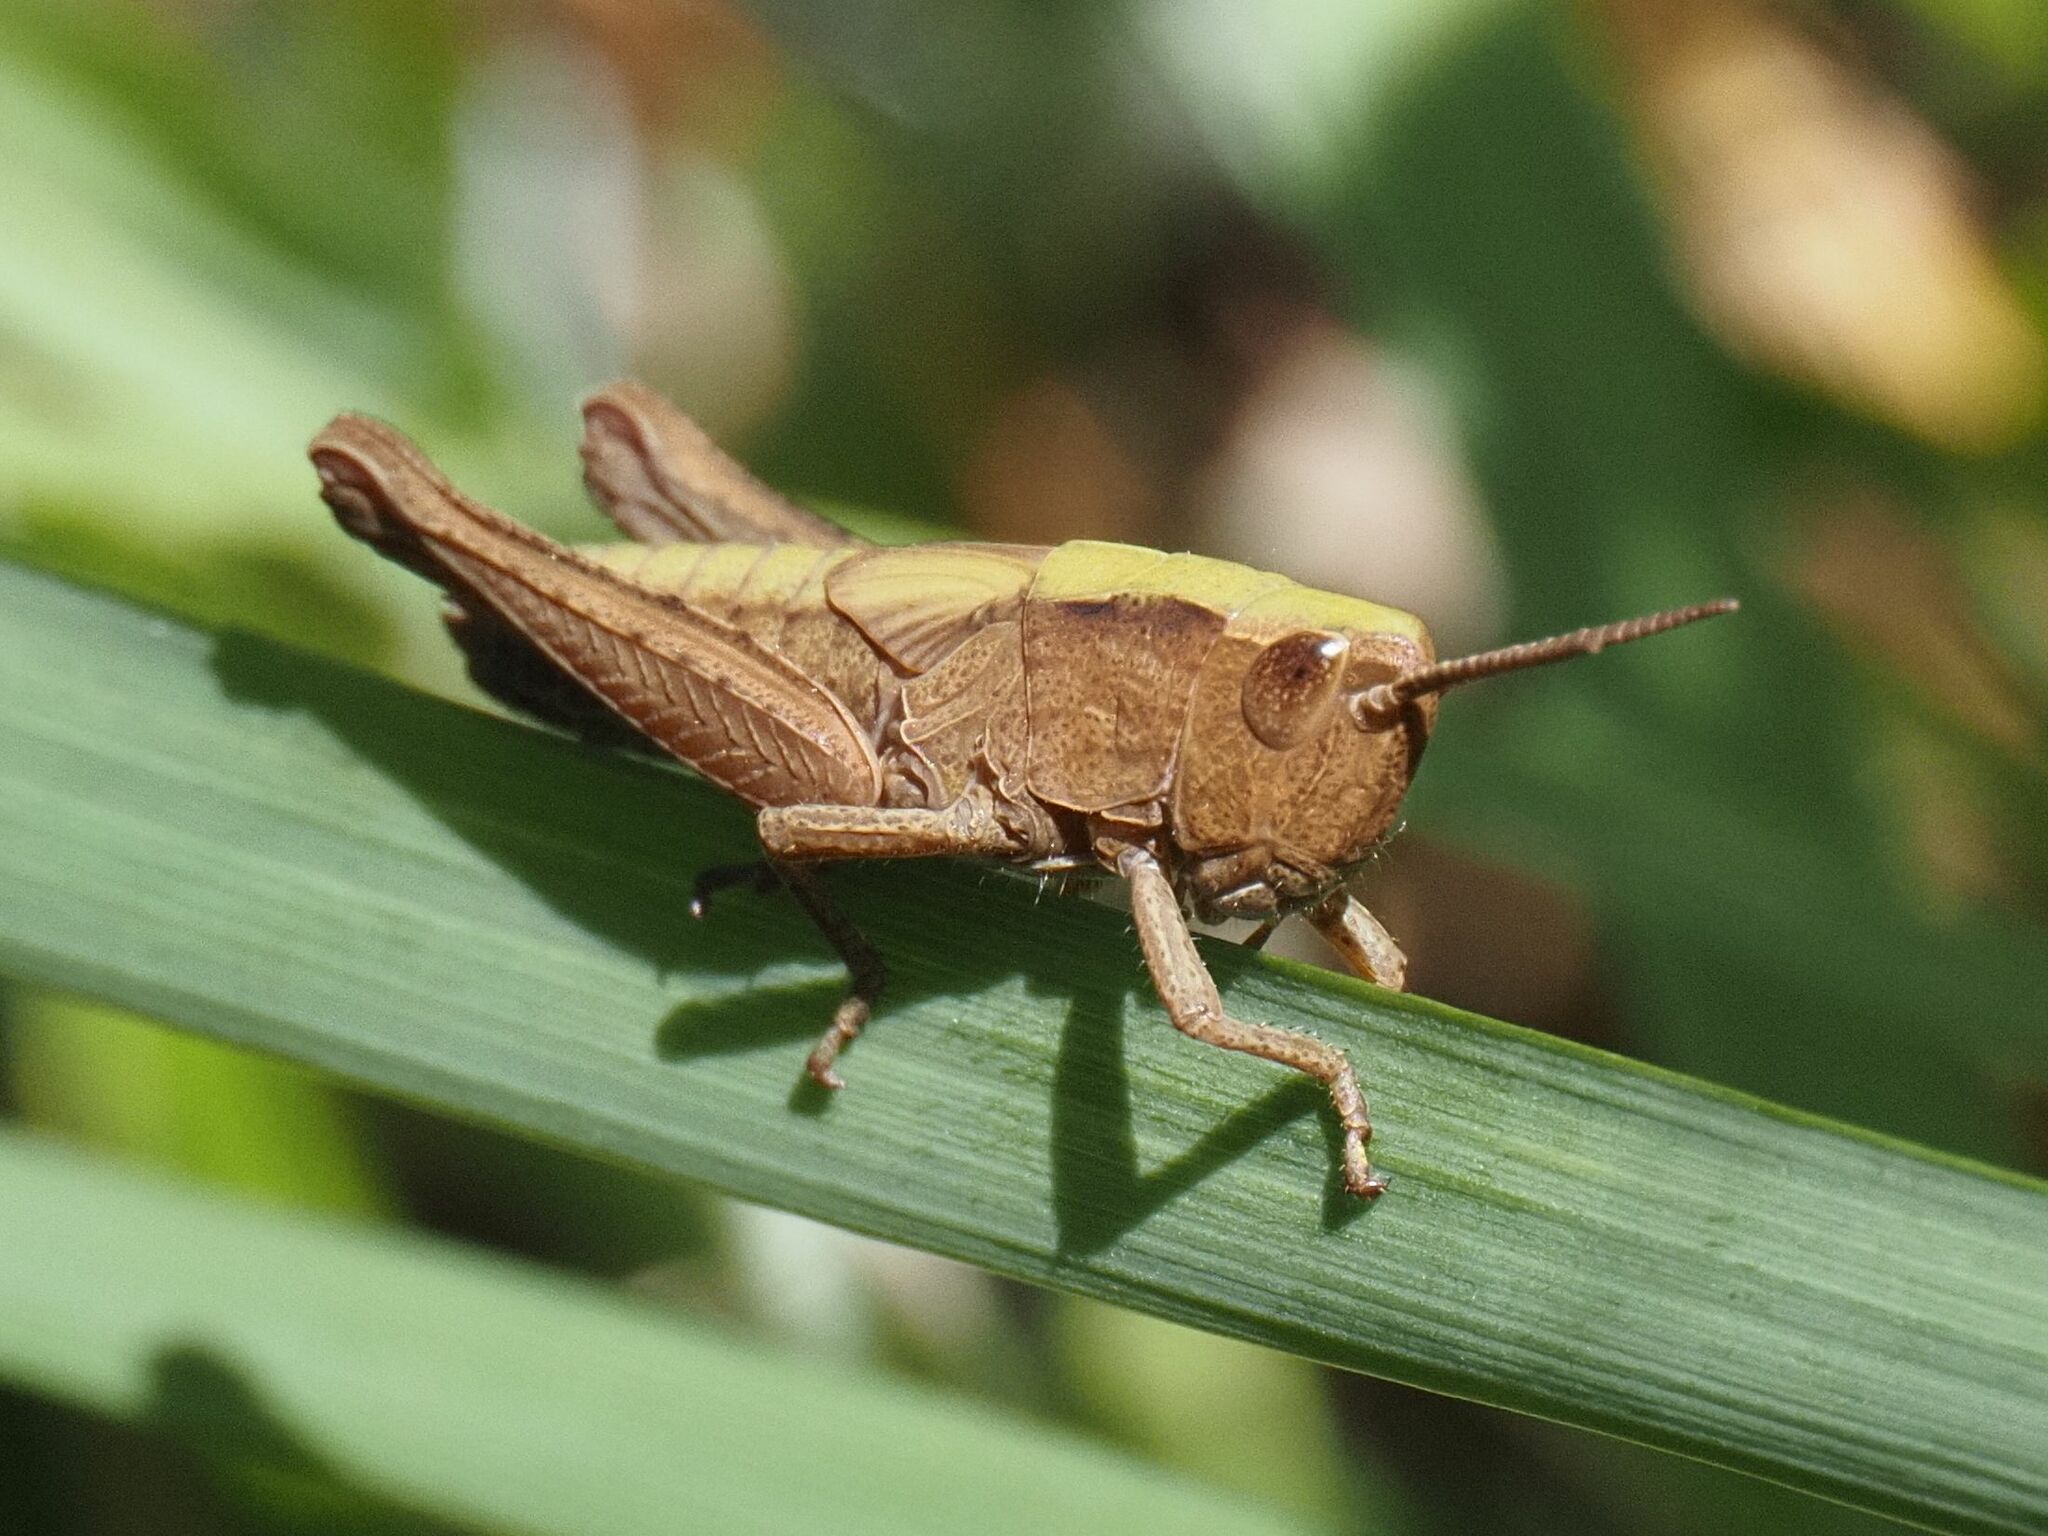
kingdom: Animalia
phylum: Arthropoda
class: Insecta
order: Orthoptera
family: Acrididae
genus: Chorthippus
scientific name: Chorthippus dorsatus
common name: Steppe grasshopper
